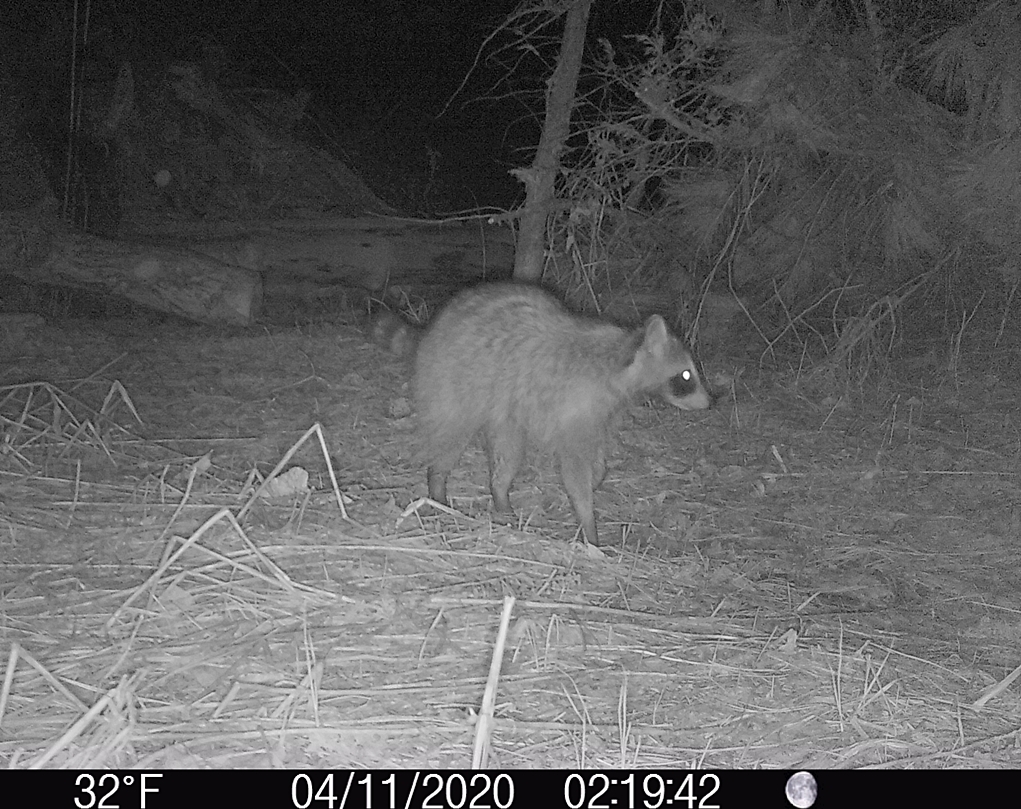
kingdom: Animalia
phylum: Chordata
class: Mammalia
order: Carnivora
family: Procyonidae
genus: Procyon
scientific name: Procyon lotor
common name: Raccoon
